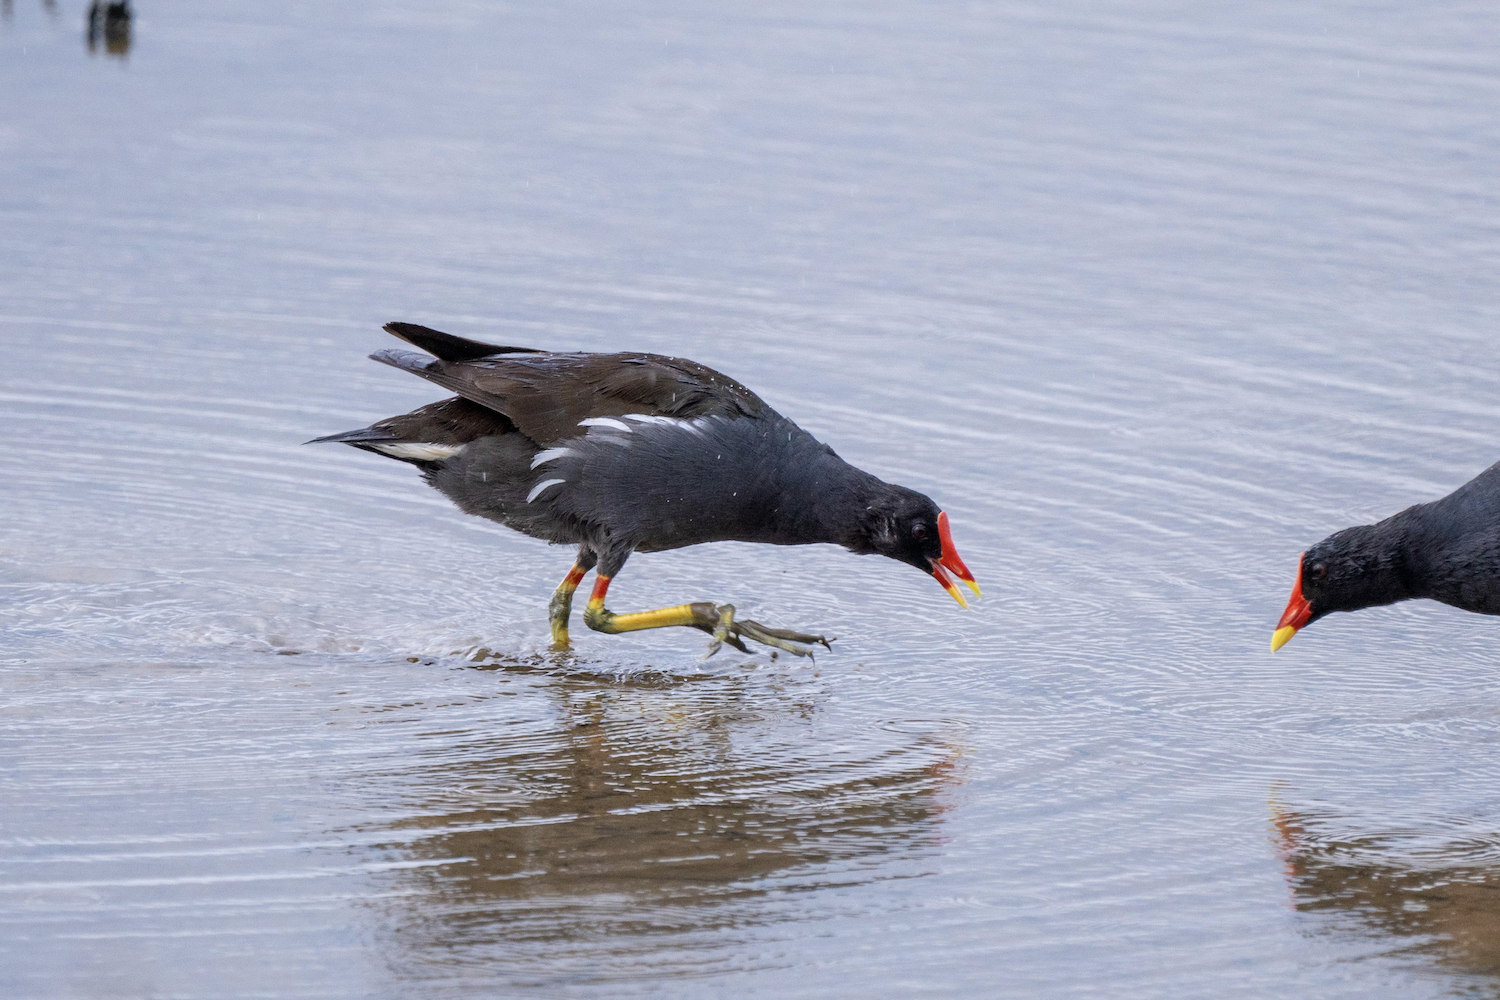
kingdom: Animalia
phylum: Chordata
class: Aves
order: Gruiformes
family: Rallidae
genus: Gallinula
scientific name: Gallinula chloropus
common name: Common moorhen
